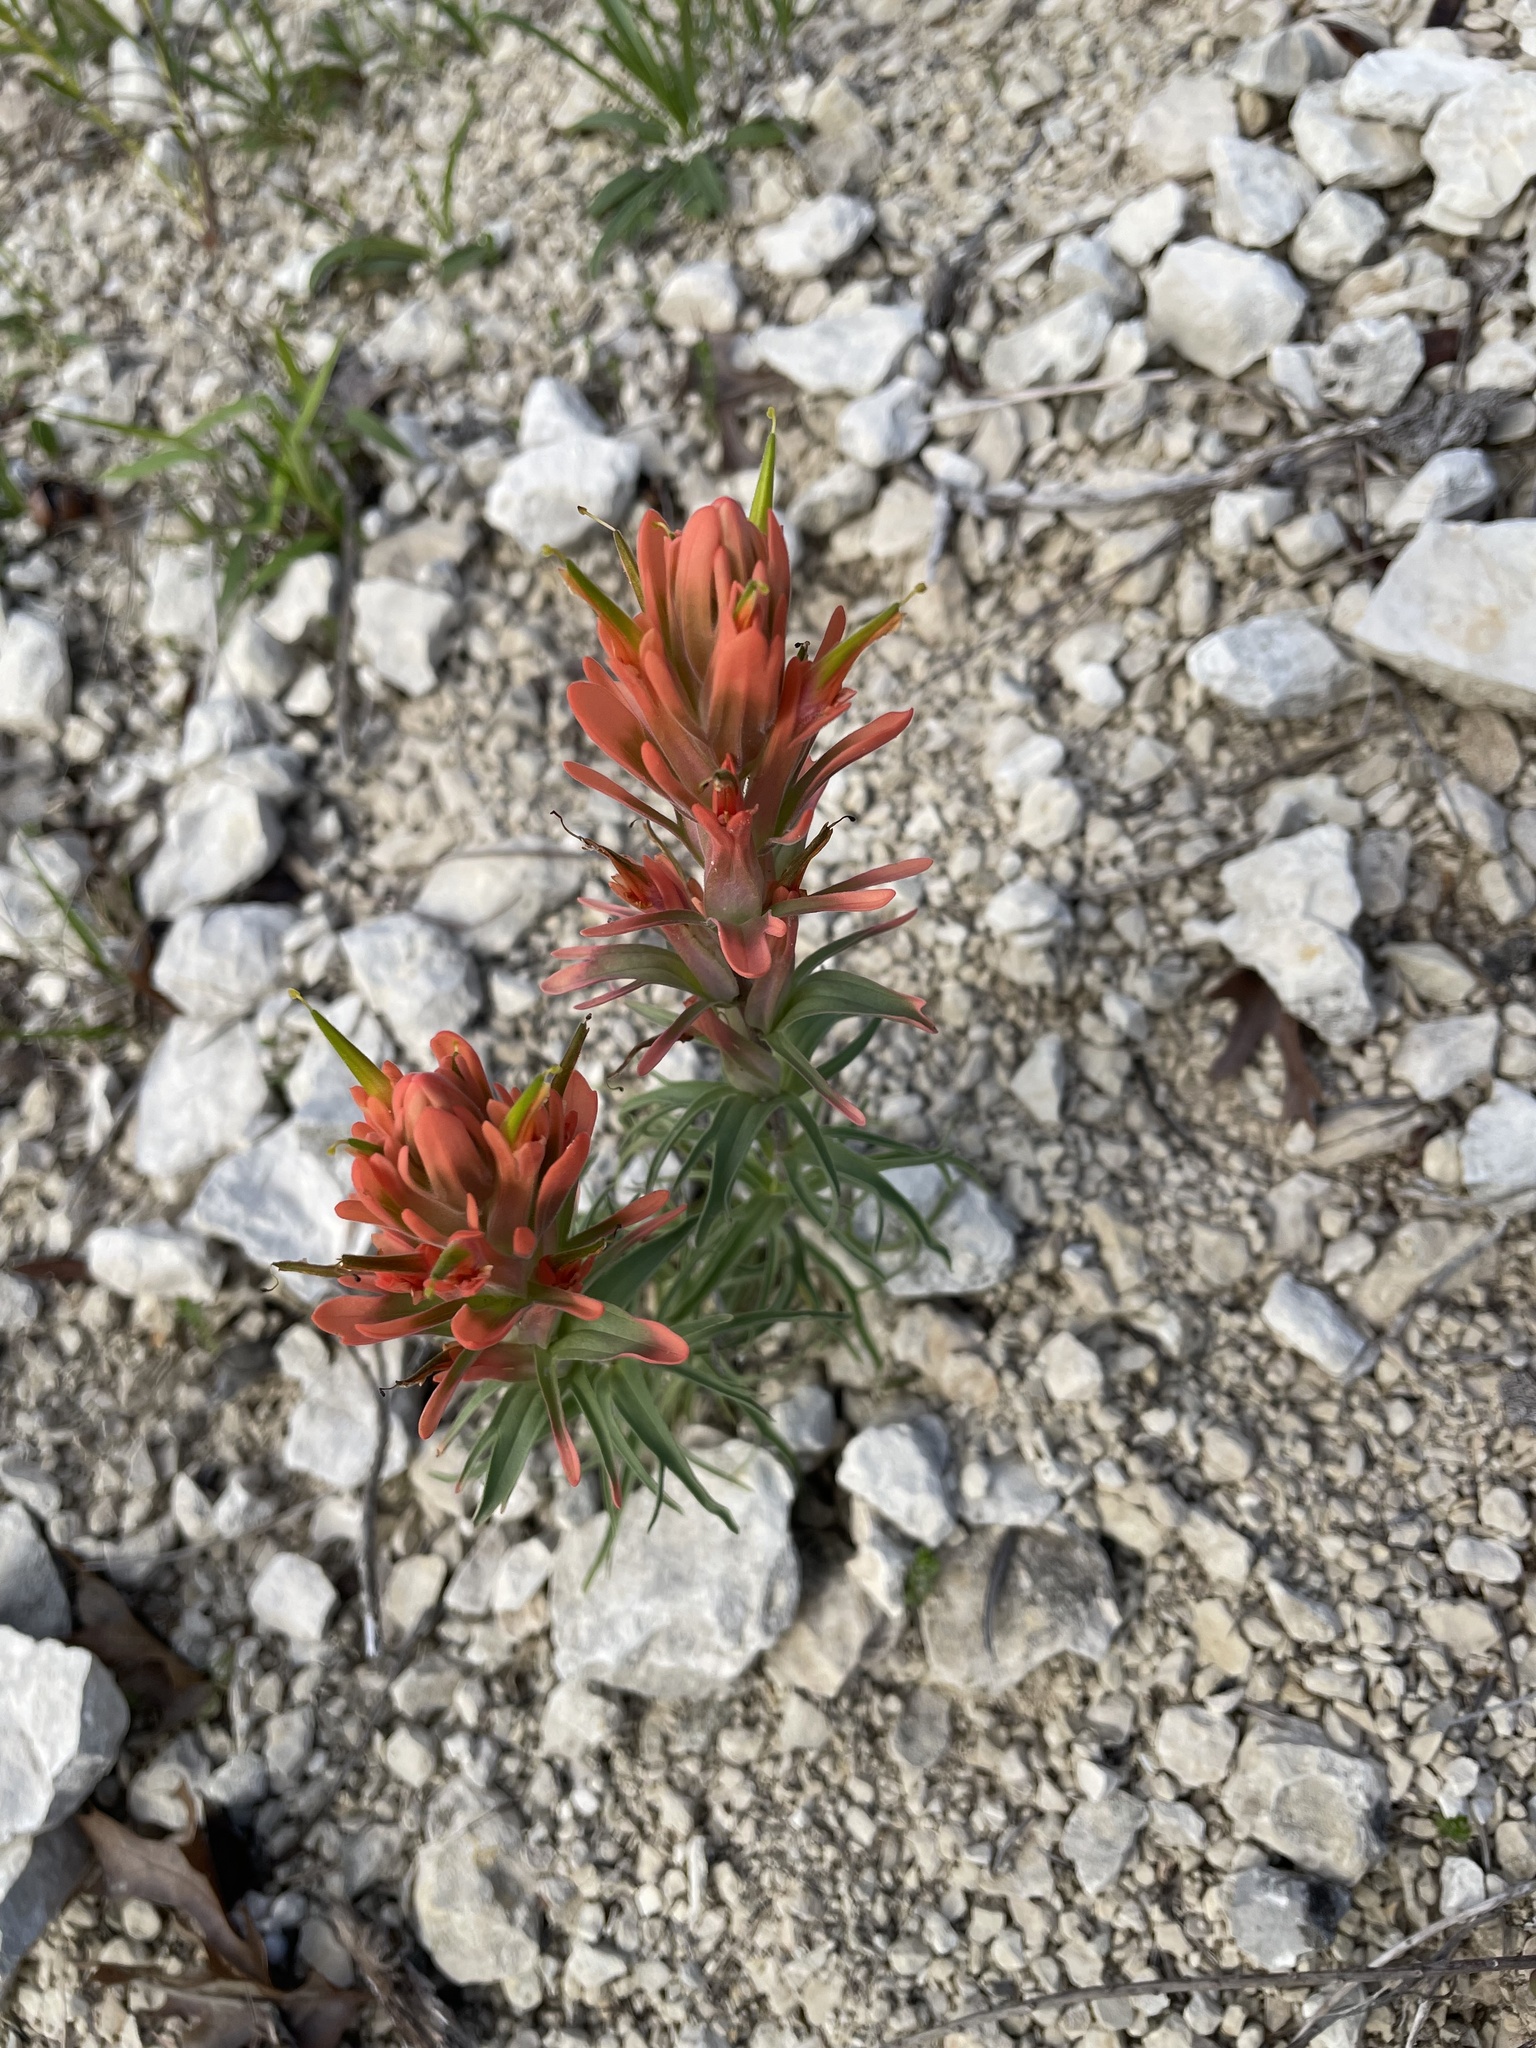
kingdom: Plantae
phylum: Tracheophyta
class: Magnoliopsida
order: Lamiales
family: Orobanchaceae
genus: Castilleja
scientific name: Castilleja lindheimeri
